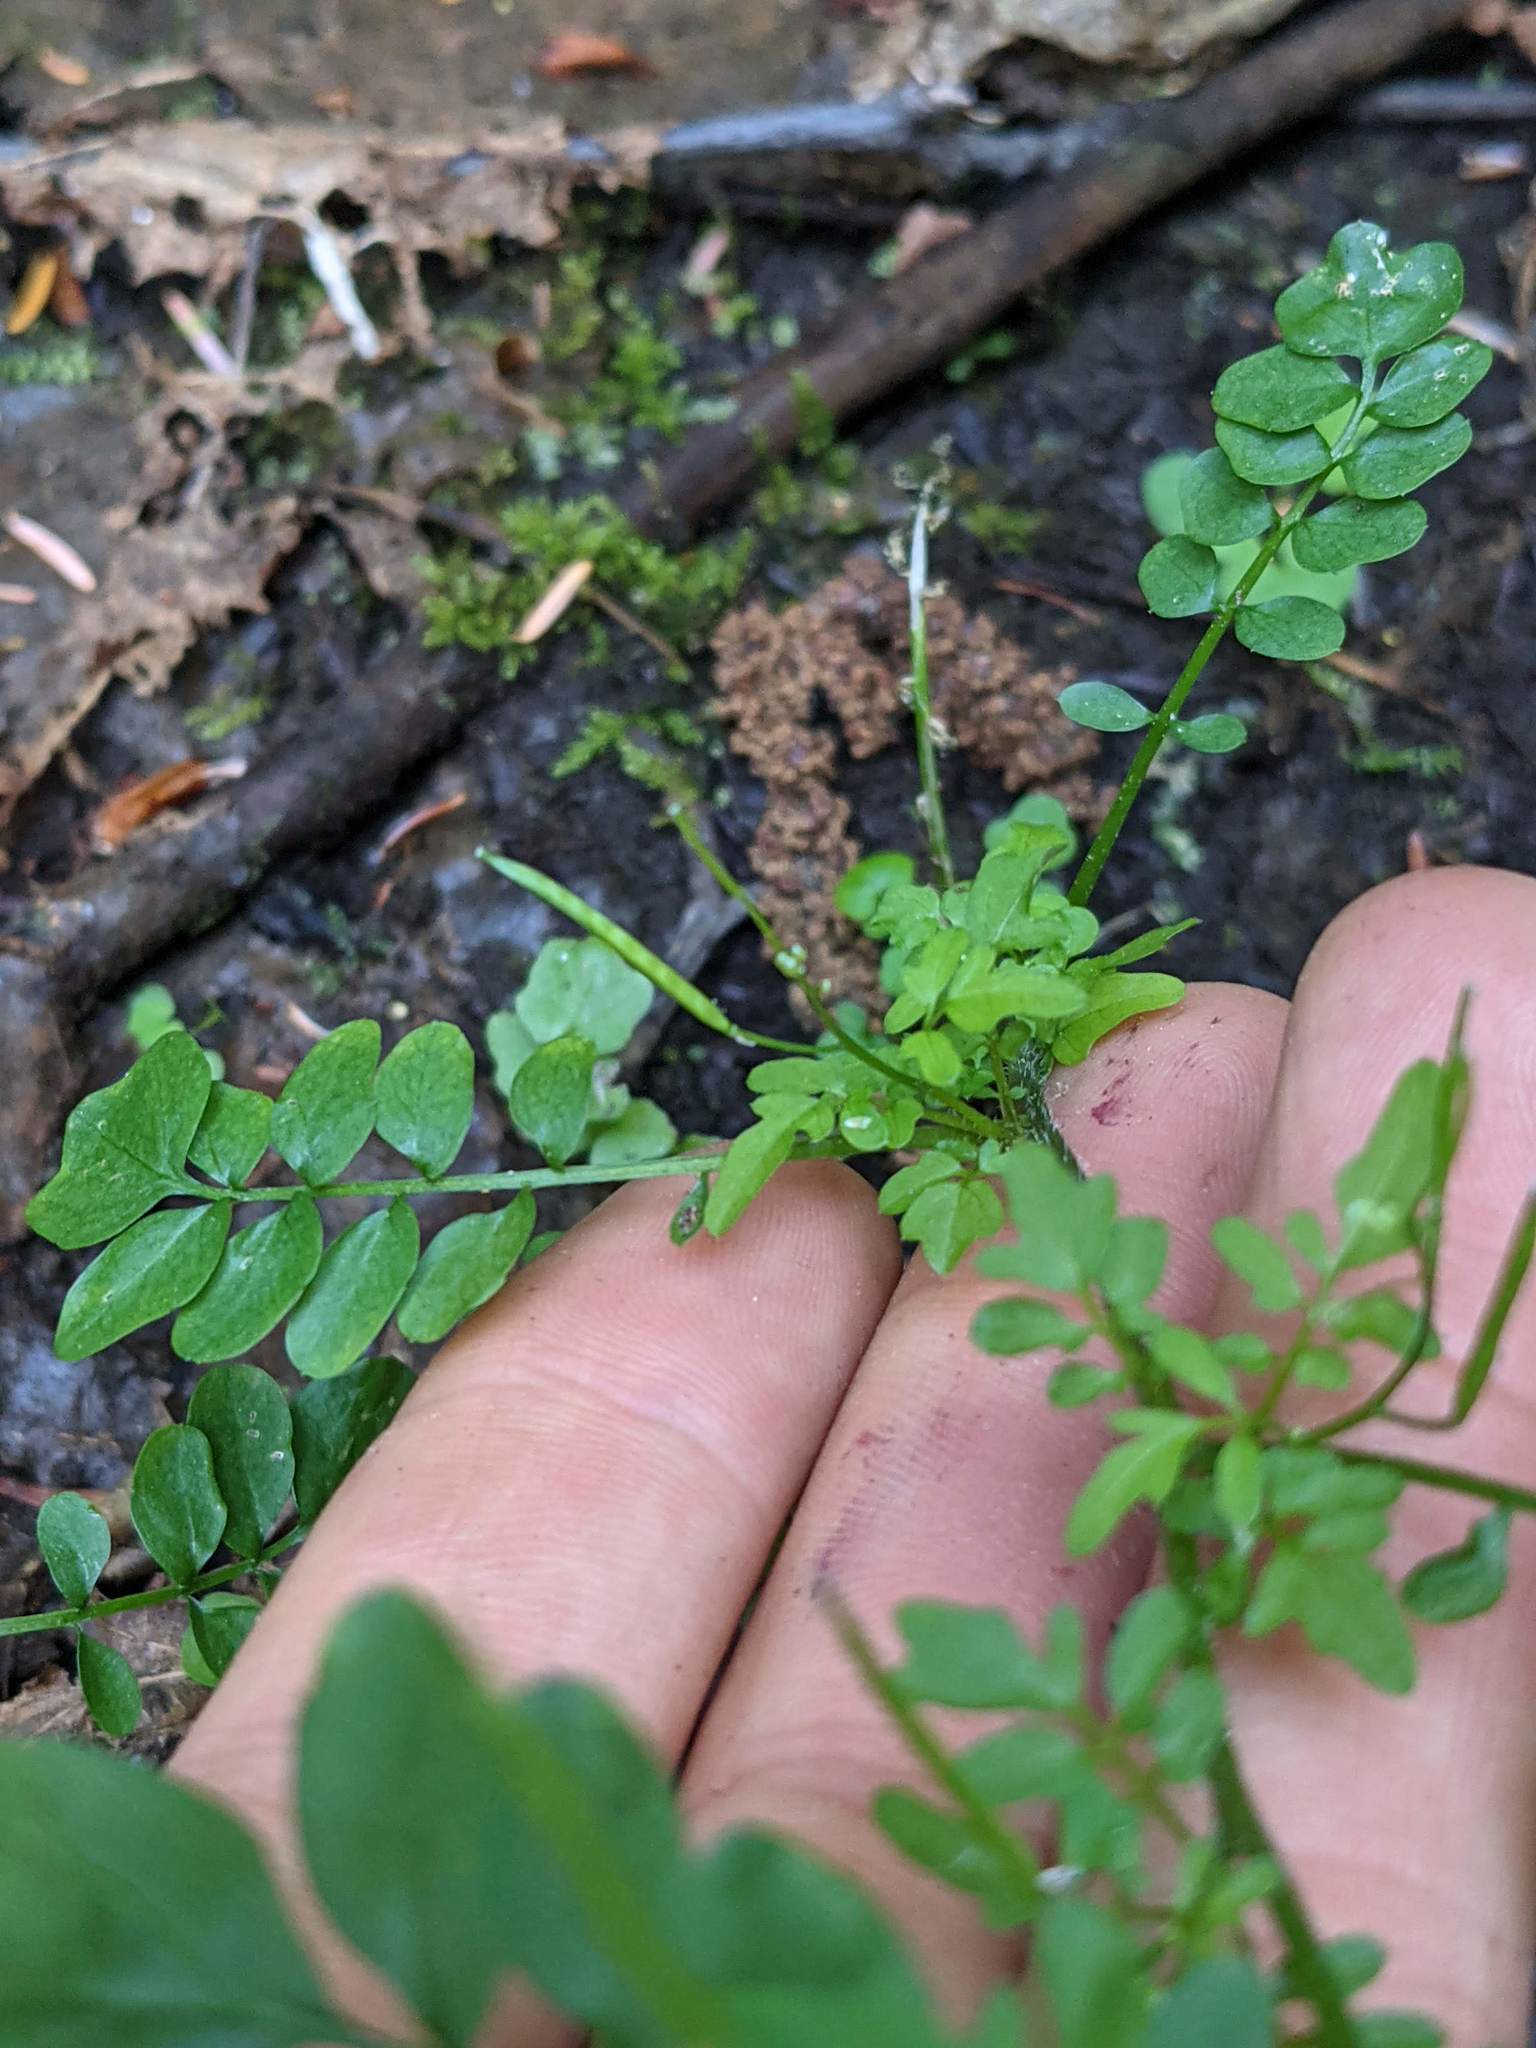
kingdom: Plantae
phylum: Tracheophyta
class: Magnoliopsida
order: Brassicales
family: Brassicaceae
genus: Cardamine
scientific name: Cardamine pensylvanica
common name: Pennsylvania bittercress
